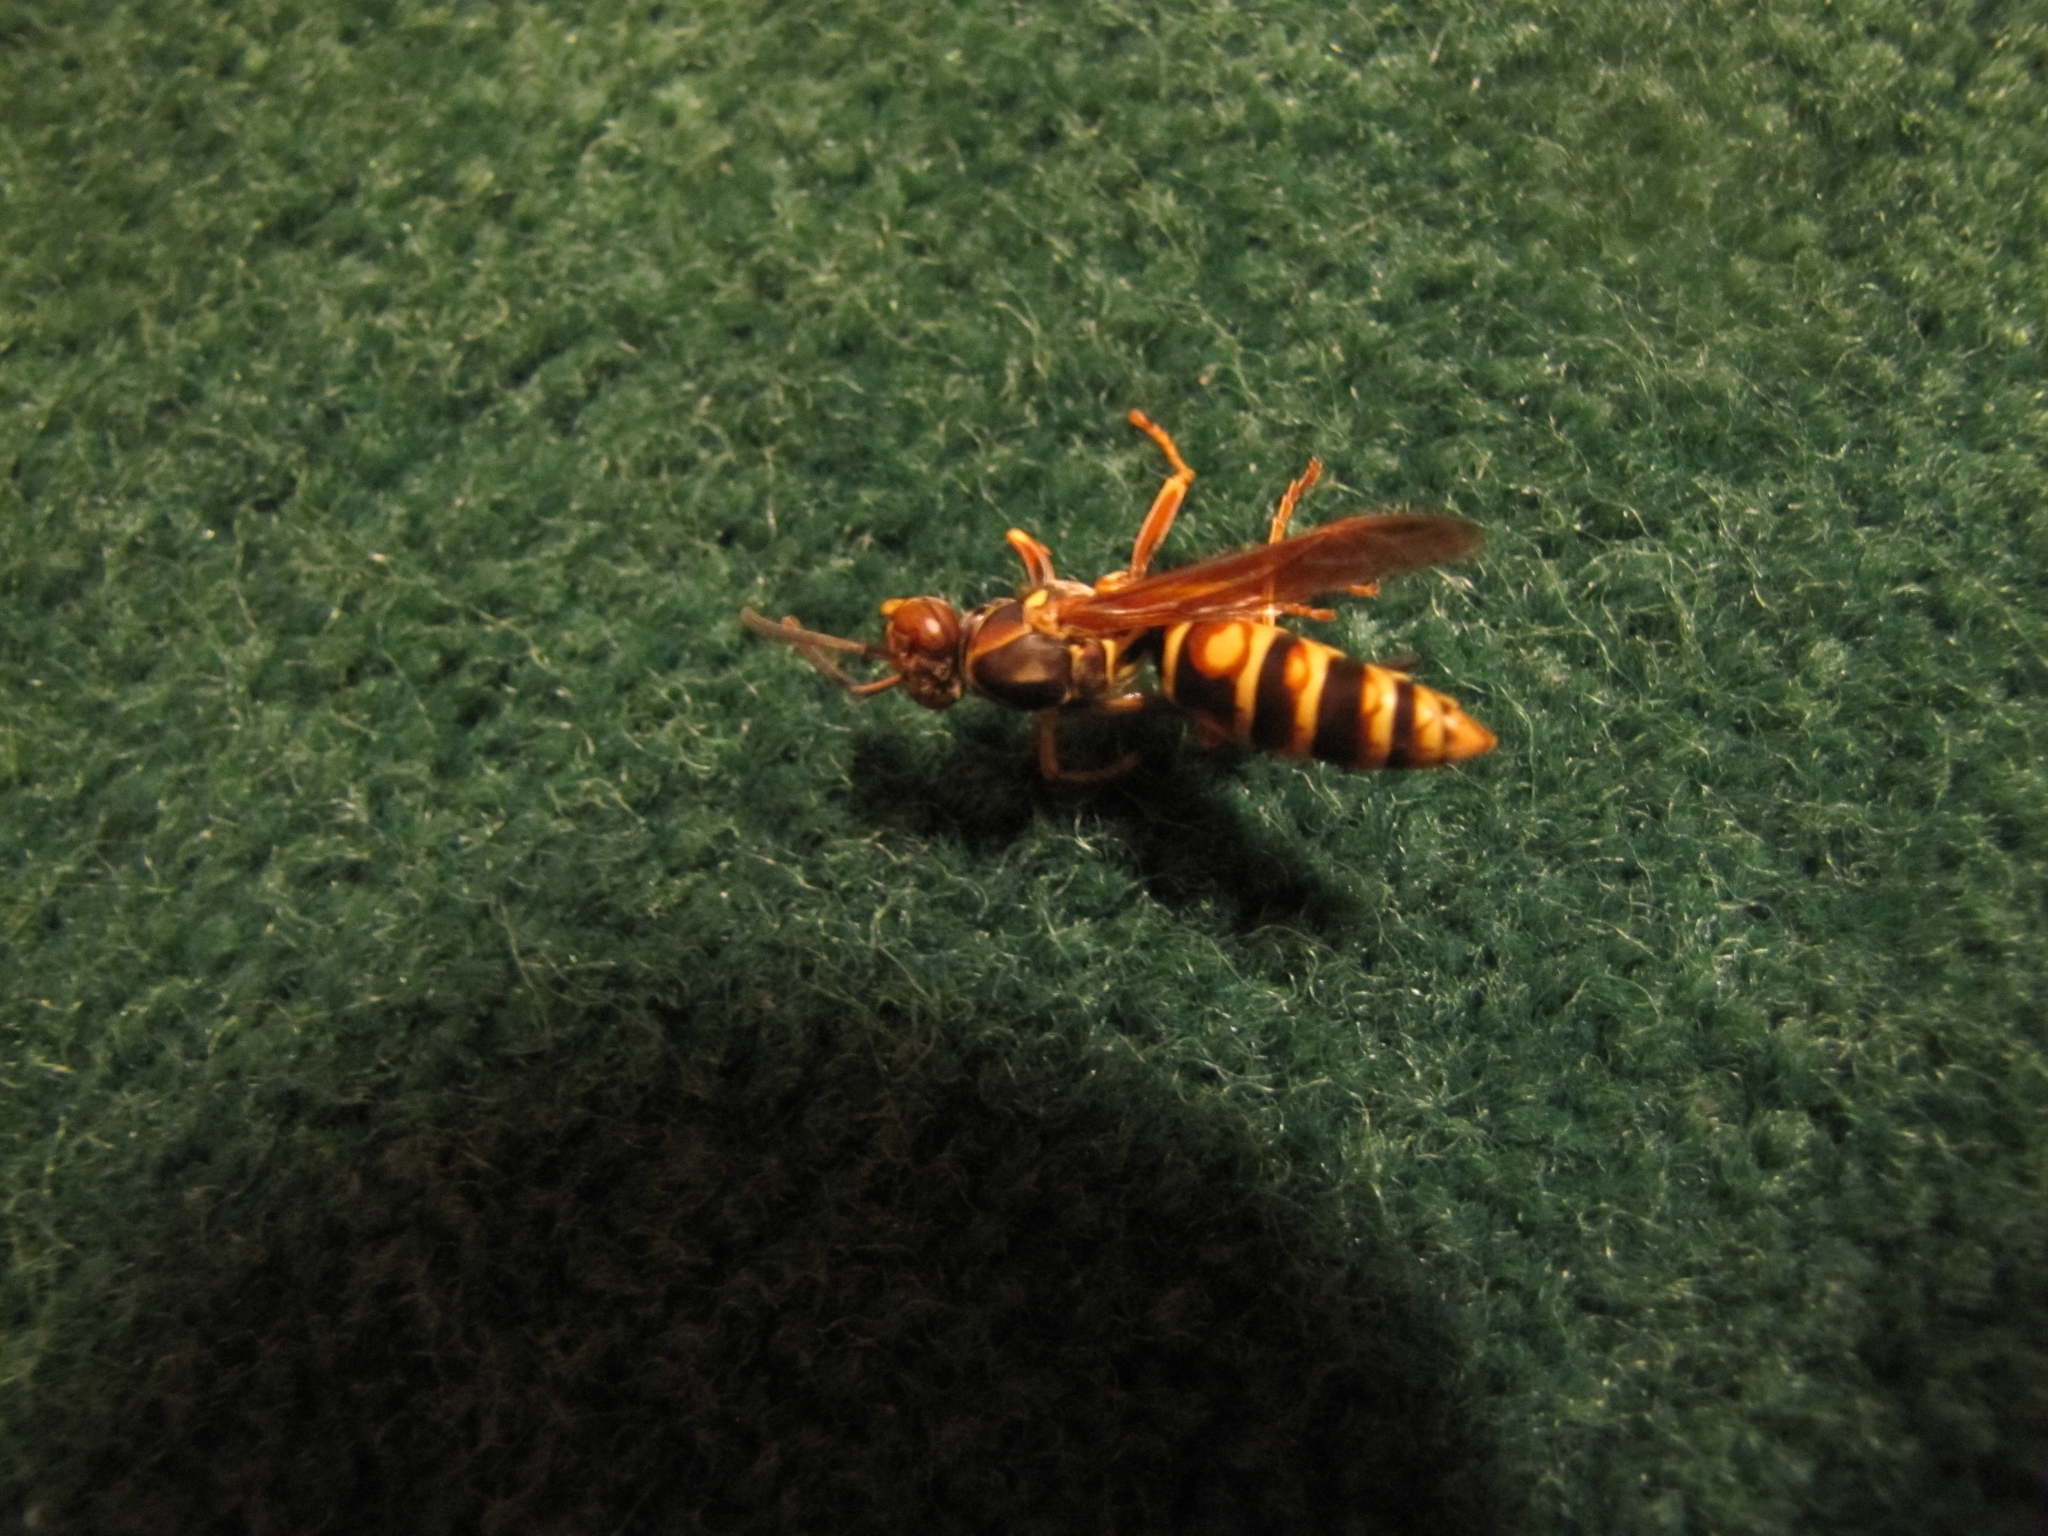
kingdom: Animalia
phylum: Arthropoda
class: Insecta
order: Hymenoptera
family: Eumenidae
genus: Polistes
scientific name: Polistes fuscatus
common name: Dark paper wasp
